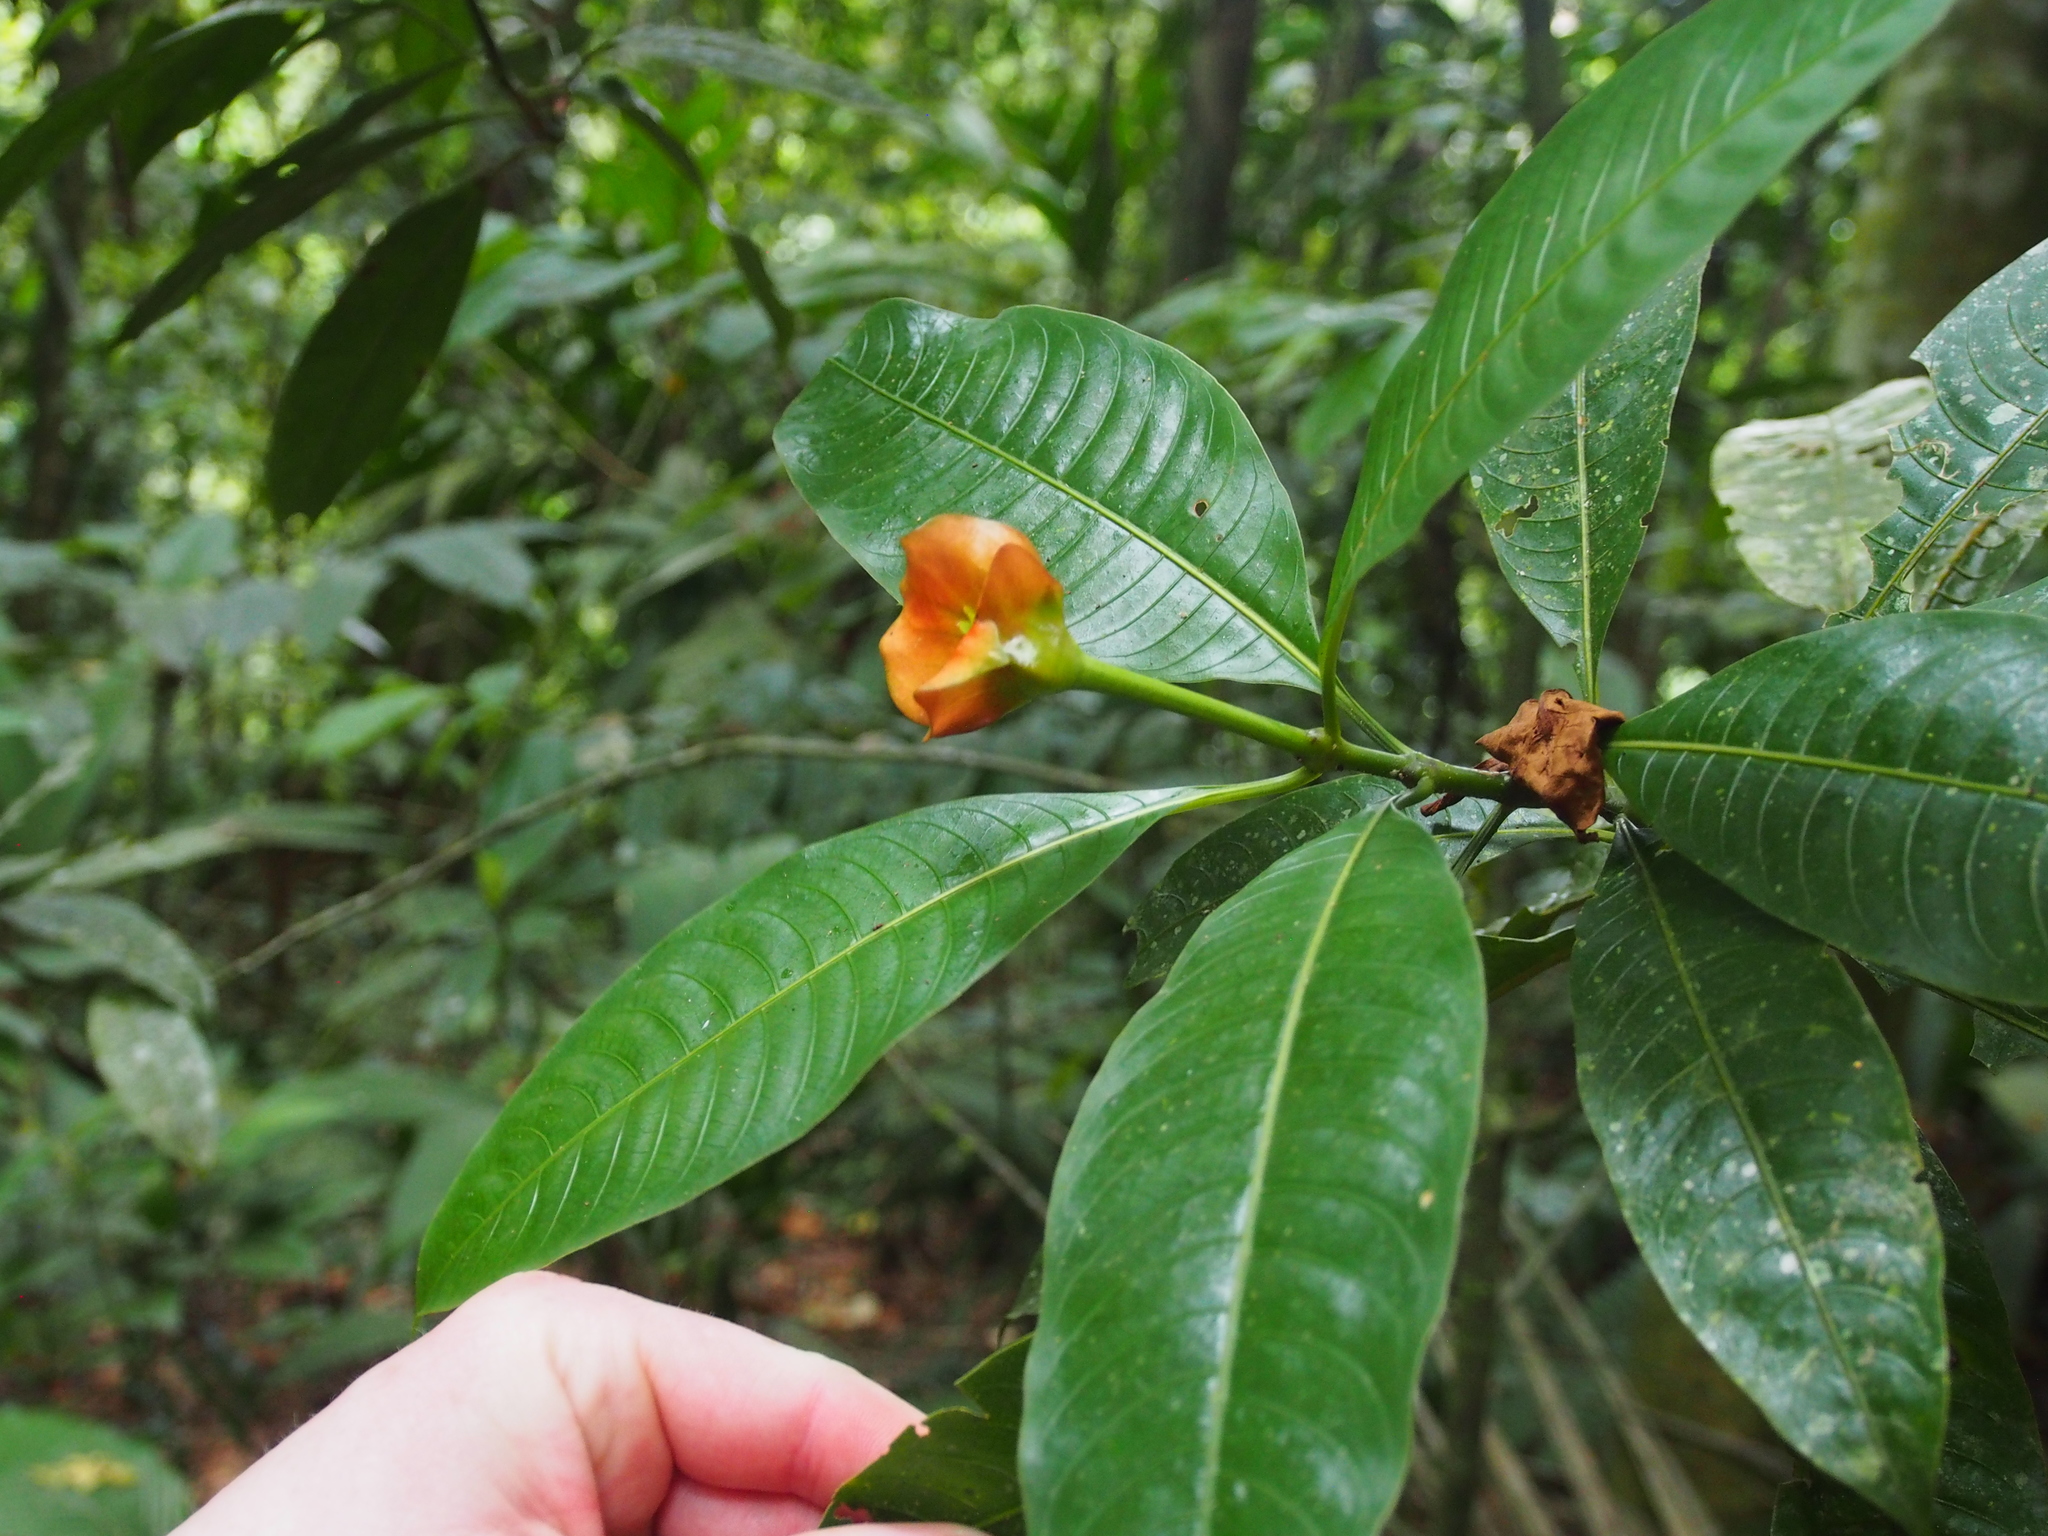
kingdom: Plantae
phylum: Tracheophyta
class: Magnoliopsida
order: Gentianales
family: Rubiaceae
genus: Palicourea
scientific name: Palicourea elata
